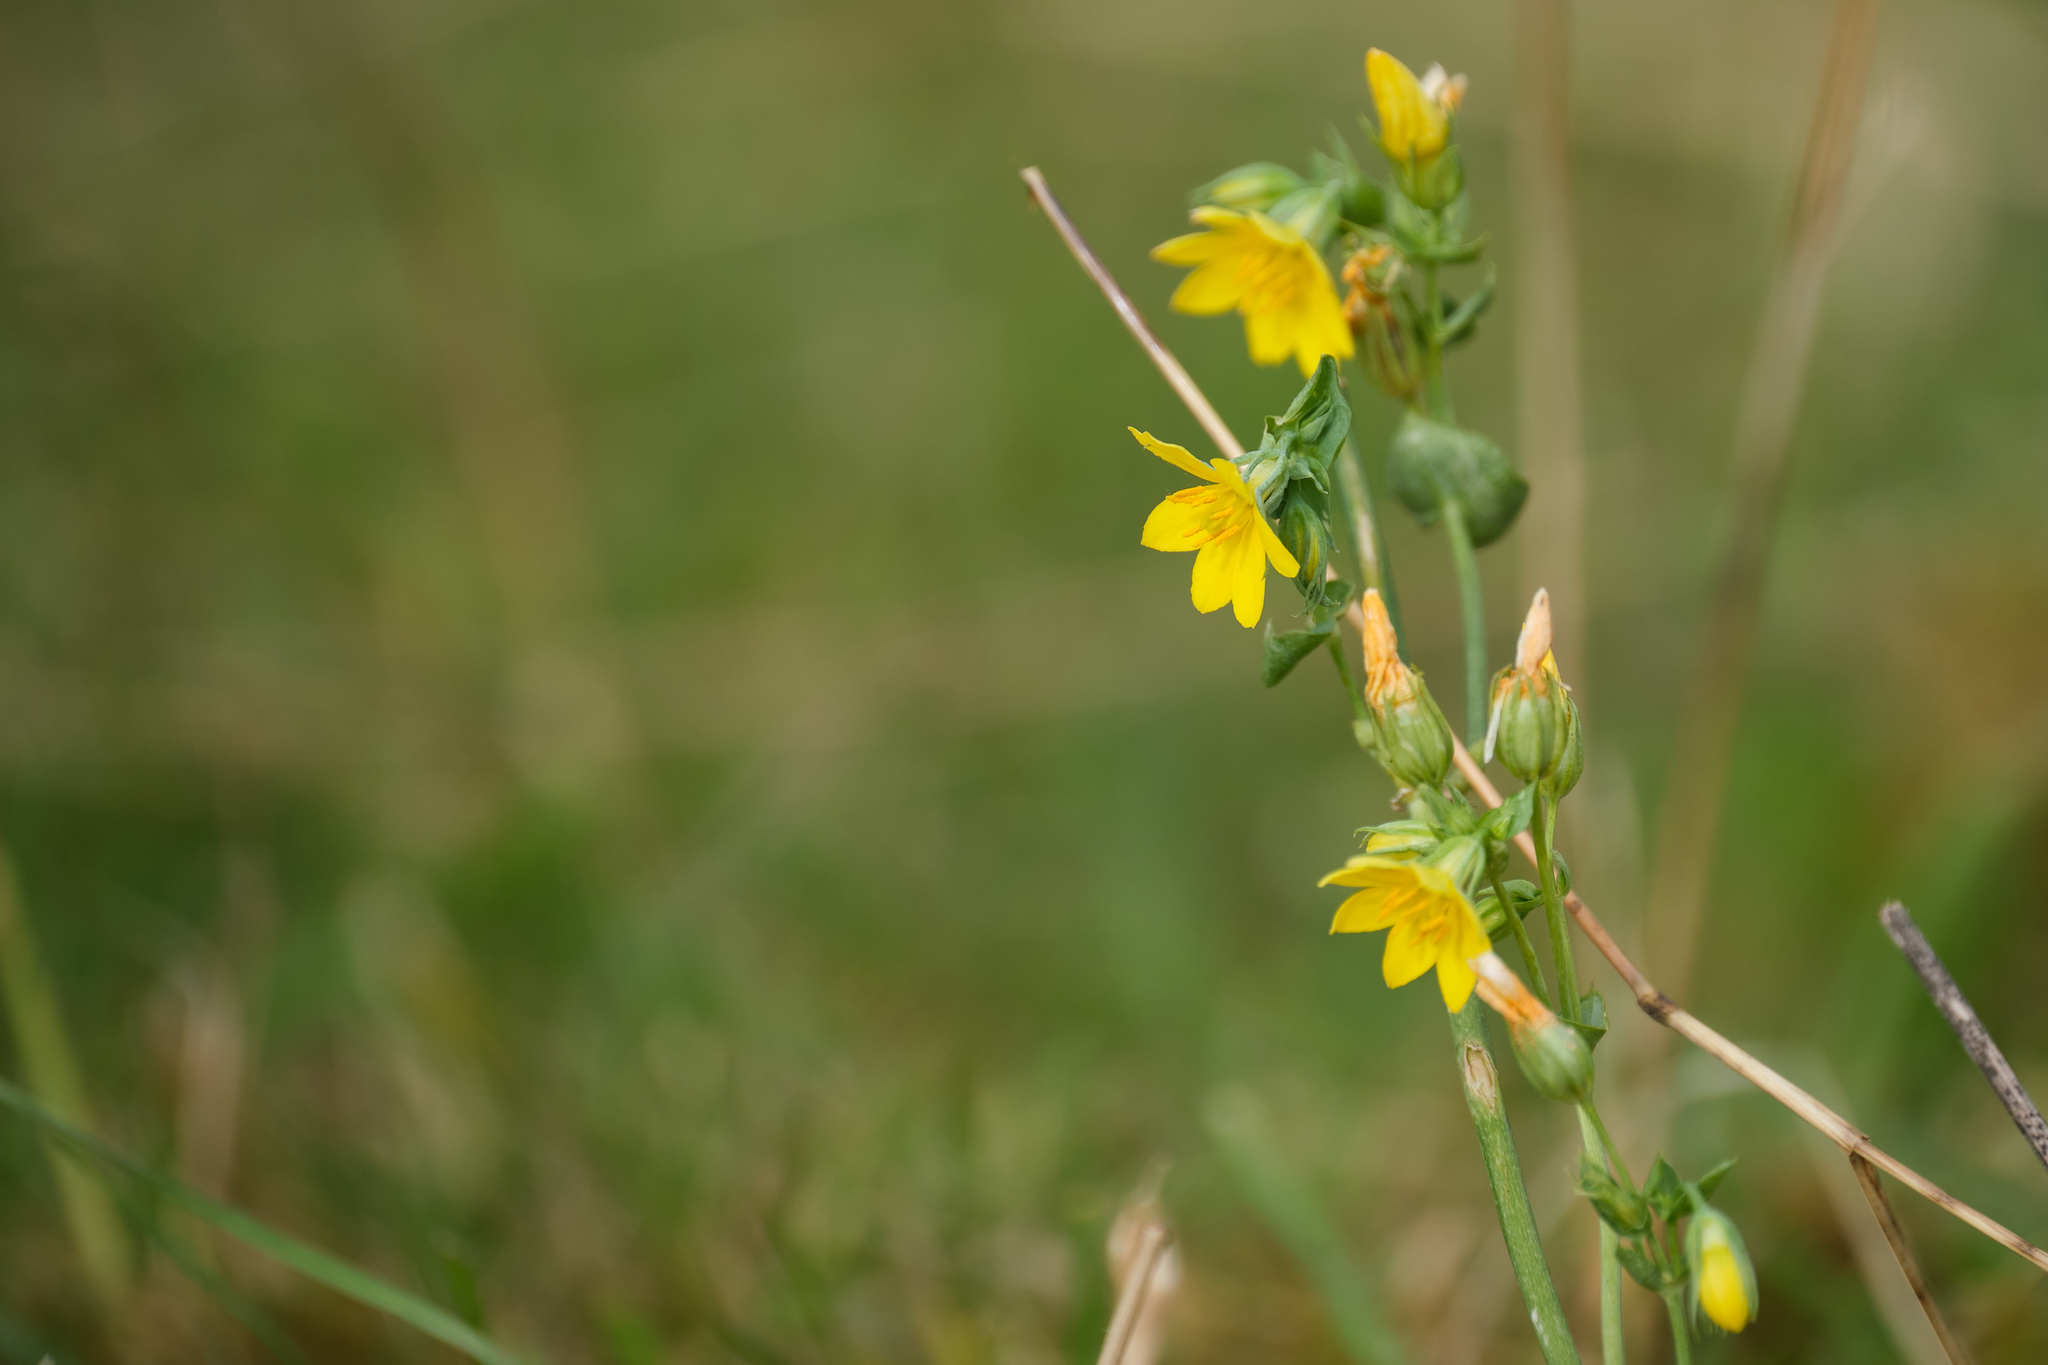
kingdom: Plantae
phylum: Tracheophyta
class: Magnoliopsida
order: Gentianales
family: Gentianaceae
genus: Blackstonia
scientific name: Blackstonia perfoliata
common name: Yellow-wort
